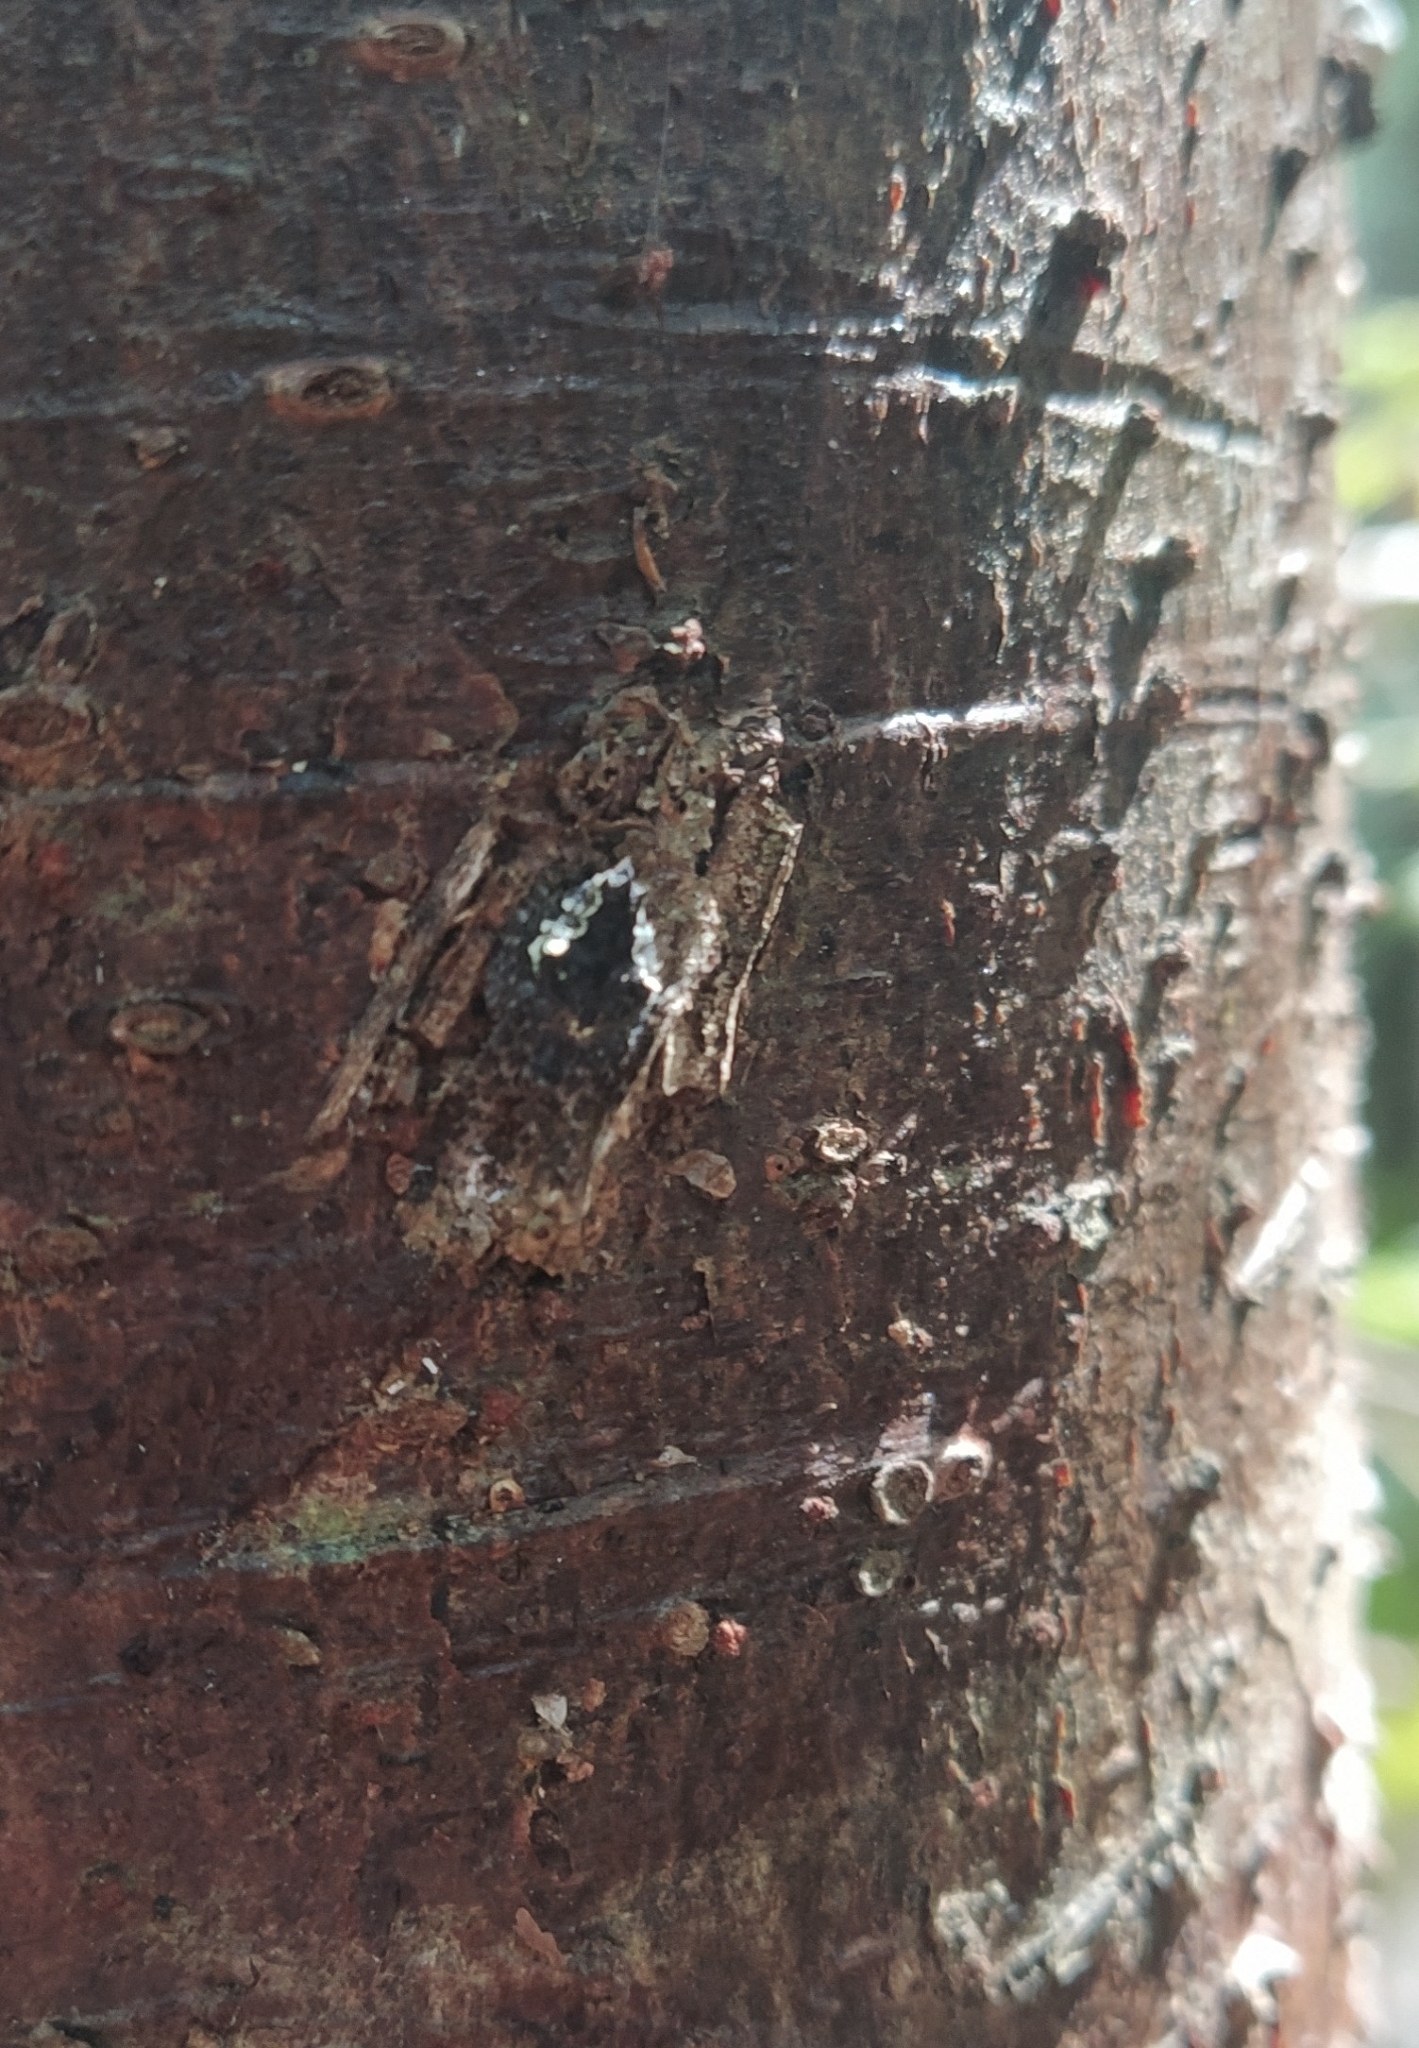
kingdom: Animalia
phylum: Arthropoda
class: Arachnida
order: Araneae
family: Araneidae
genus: Eriophora
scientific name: Eriophora pustulosa
